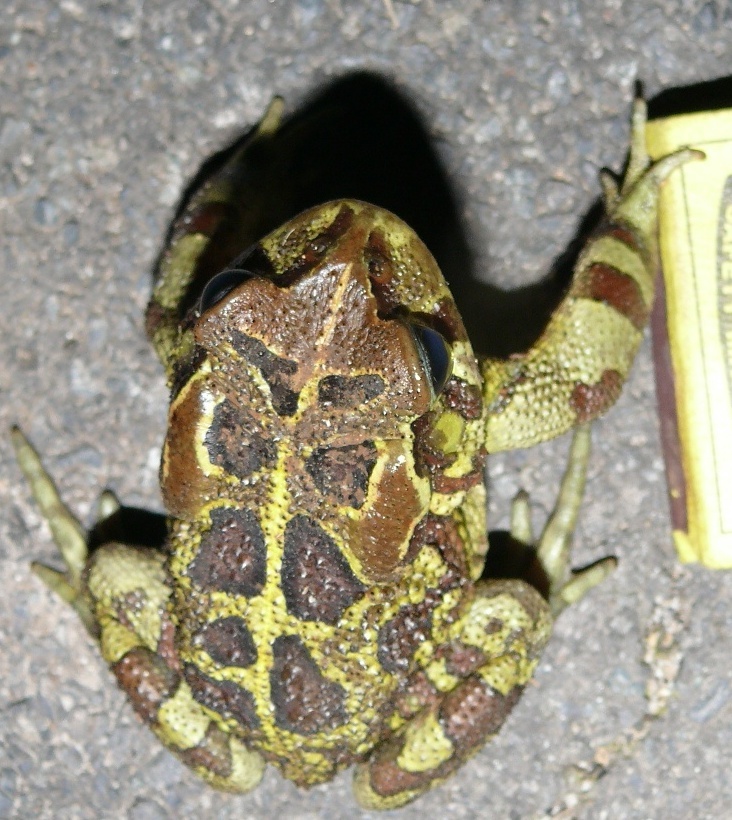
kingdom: Animalia
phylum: Chordata
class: Amphibia
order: Anura
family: Bufonidae
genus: Sclerophrys
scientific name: Sclerophrys pantherina
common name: Panther toad
